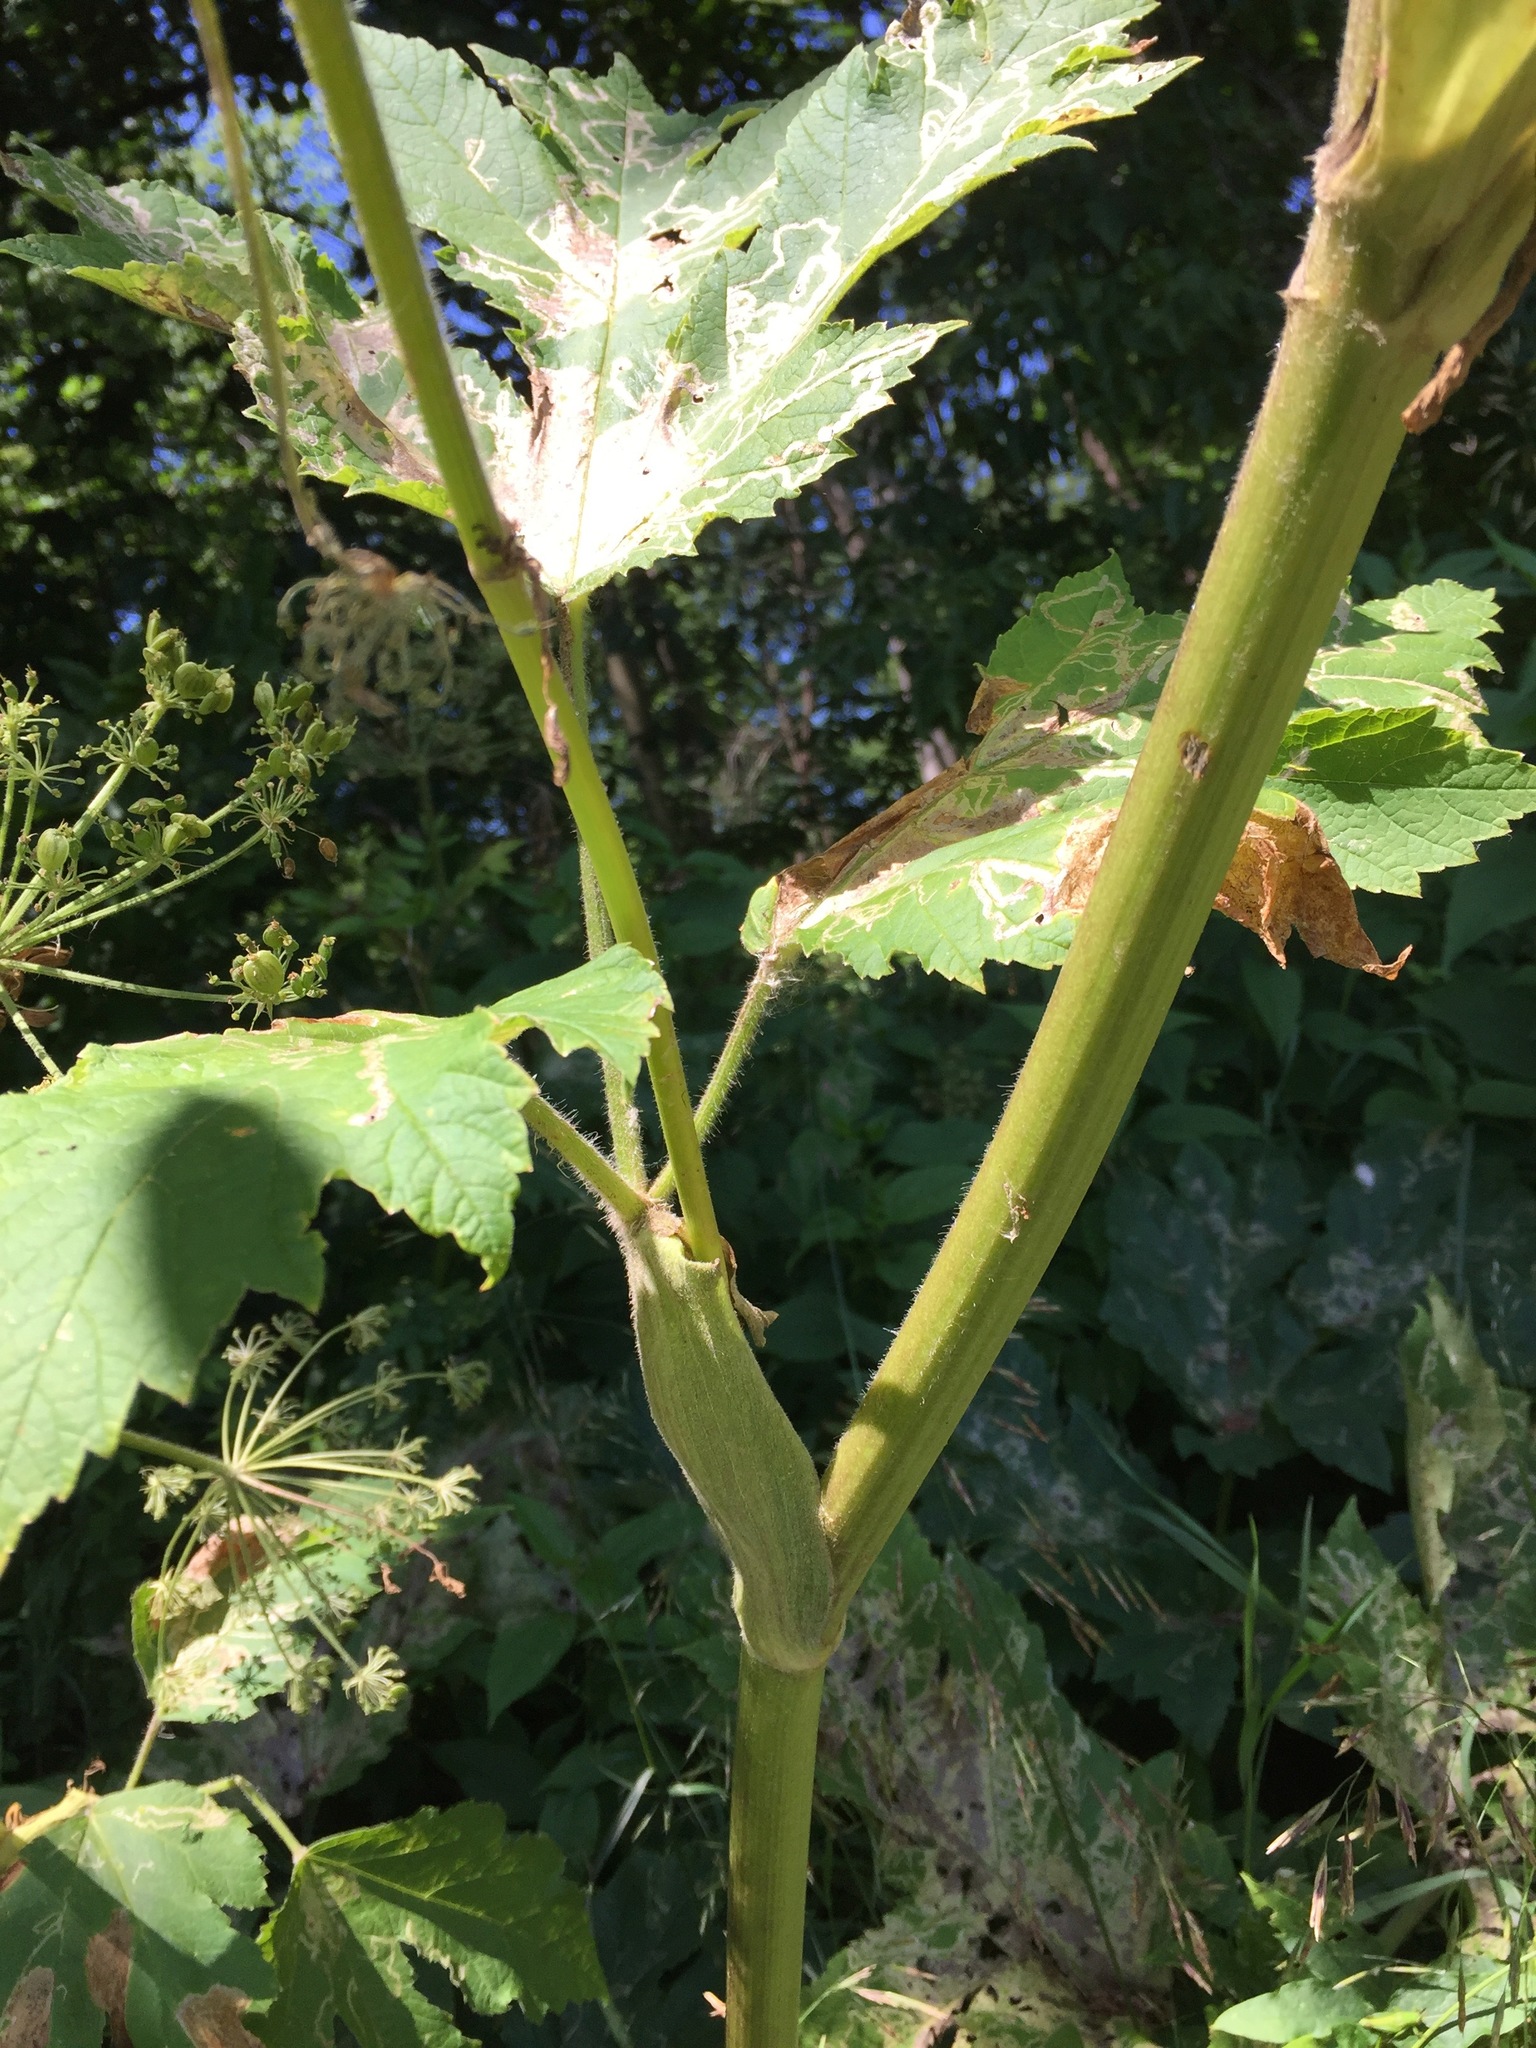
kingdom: Plantae
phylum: Tracheophyta
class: Magnoliopsida
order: Apiales
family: Apiaceae
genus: Heracleum
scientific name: Heracleum maximum
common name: American cow parsnip
